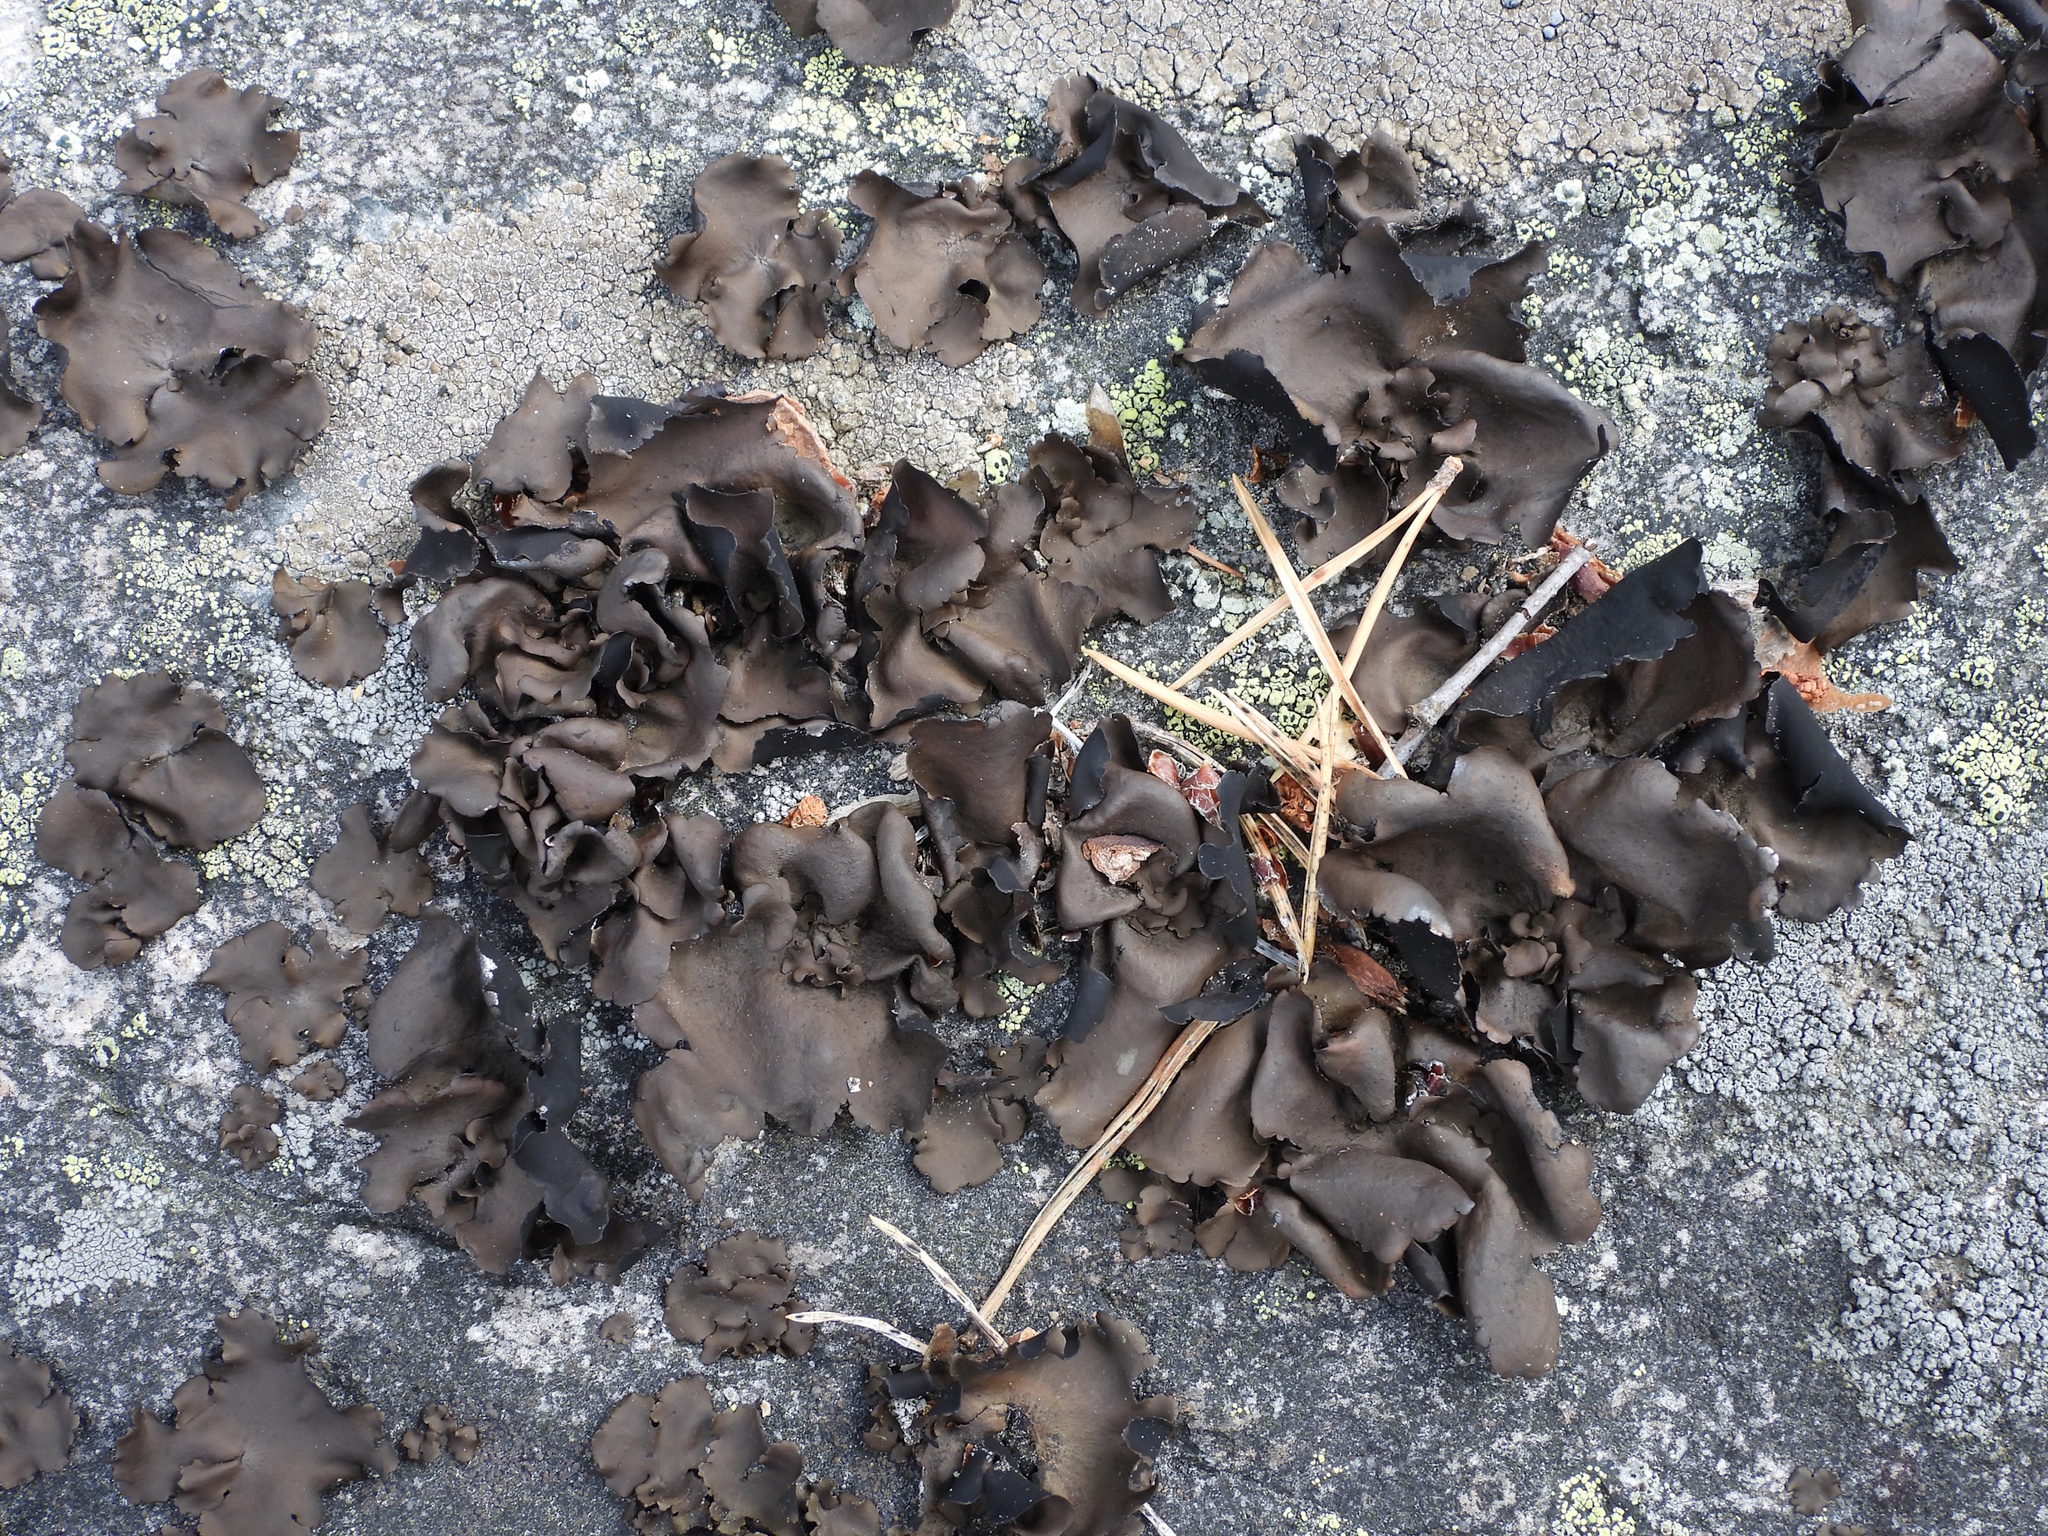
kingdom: Fungi
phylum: Ascomycota
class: Lecanoromycetes
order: Umbilicariales
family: Umbilicariaceae
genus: Umbilicaria
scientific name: Umbilicaria polyphylla
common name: Petalled rocktripe lichen
